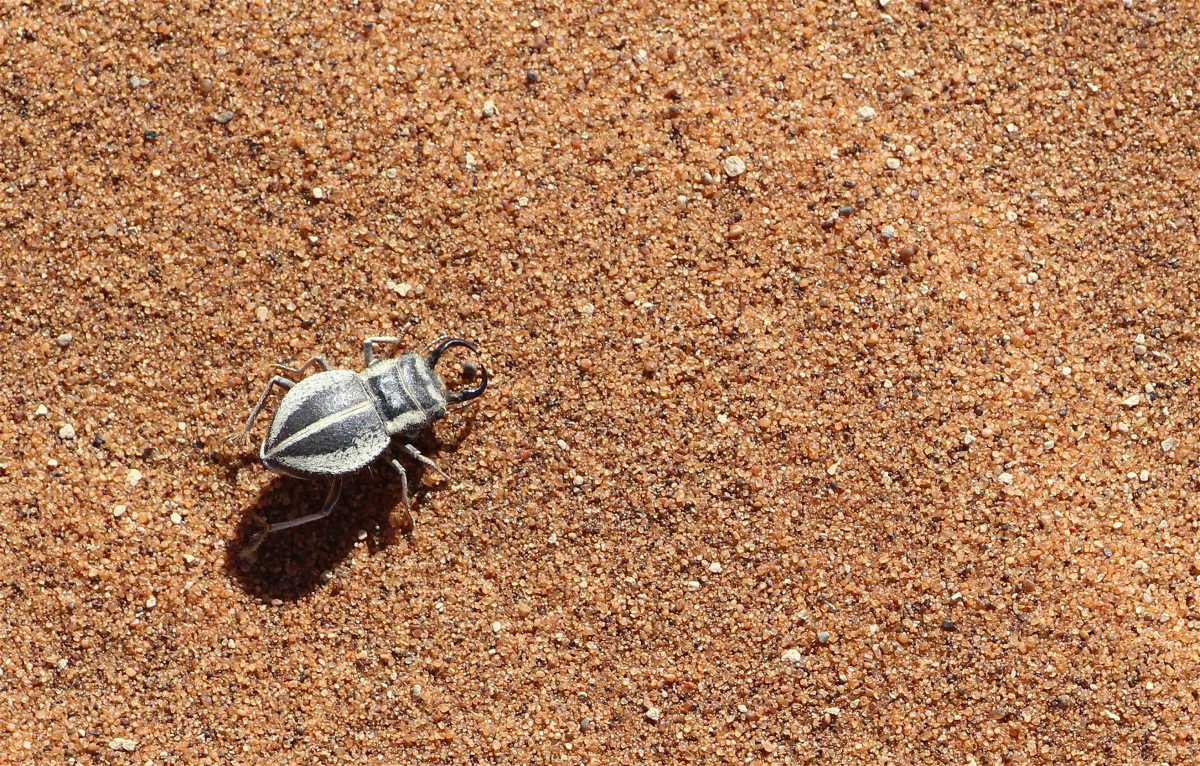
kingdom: Animalia
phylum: Arthropoda
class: Insecta
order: Coleoptera
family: Tenebrionidae
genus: Calognathus
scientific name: Calognathus
